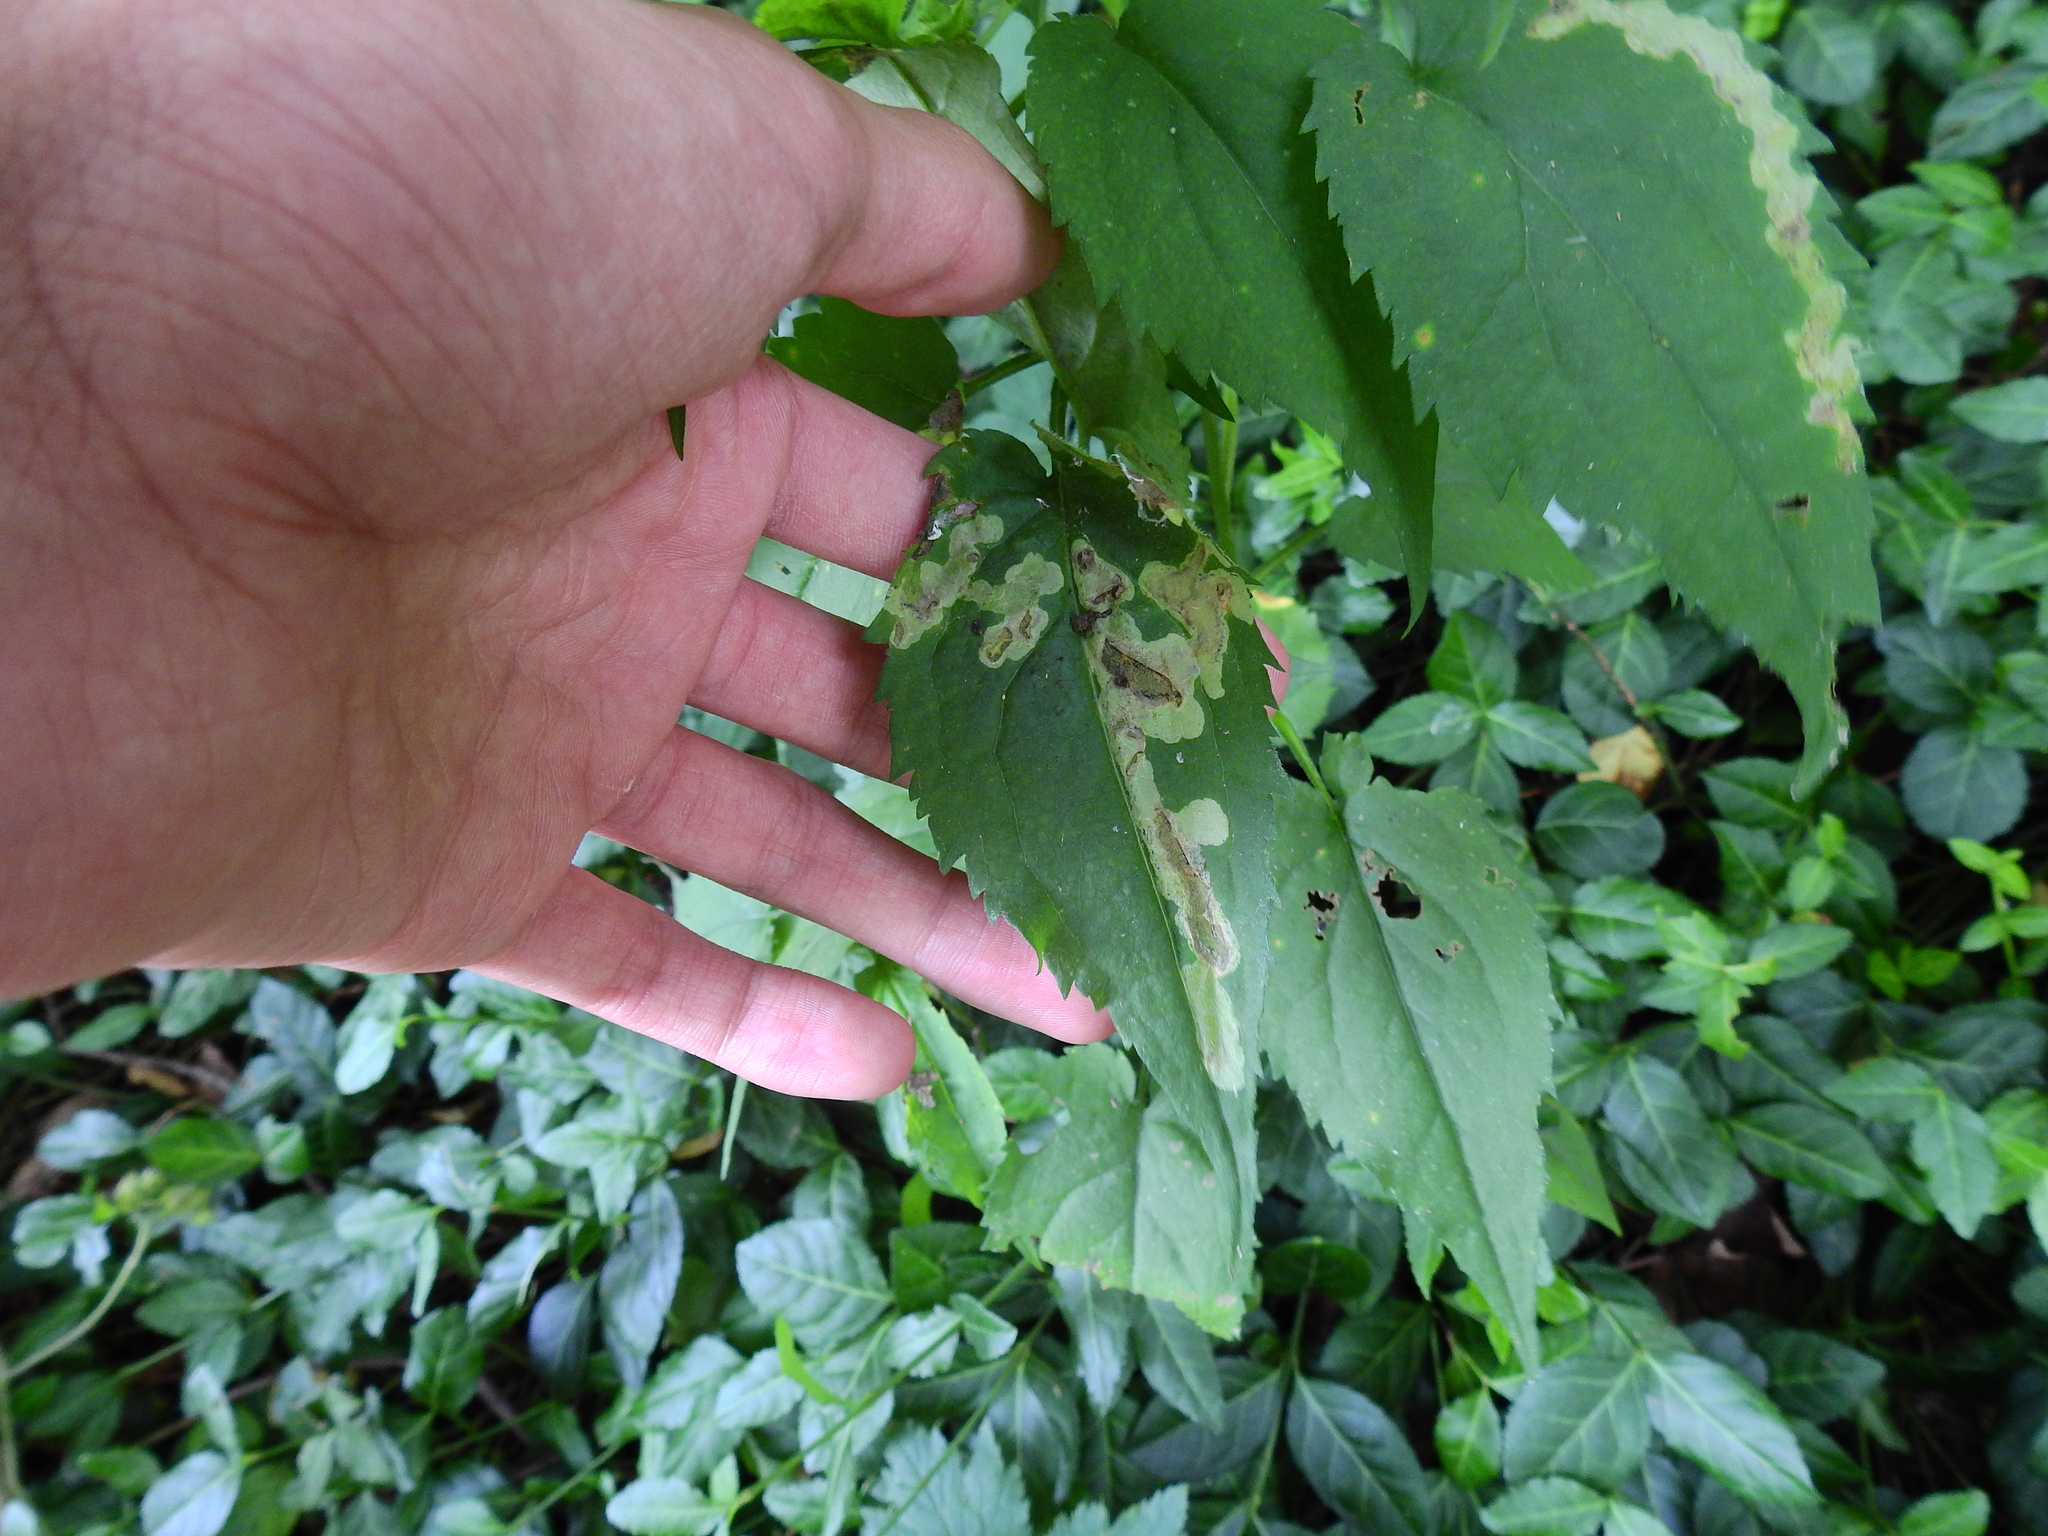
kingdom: Animalia
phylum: Arthropoda
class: Insecta
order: Coleoptera
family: Chrysomelidae
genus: Sumitrosis
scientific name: Sumitrosis inaequalis
